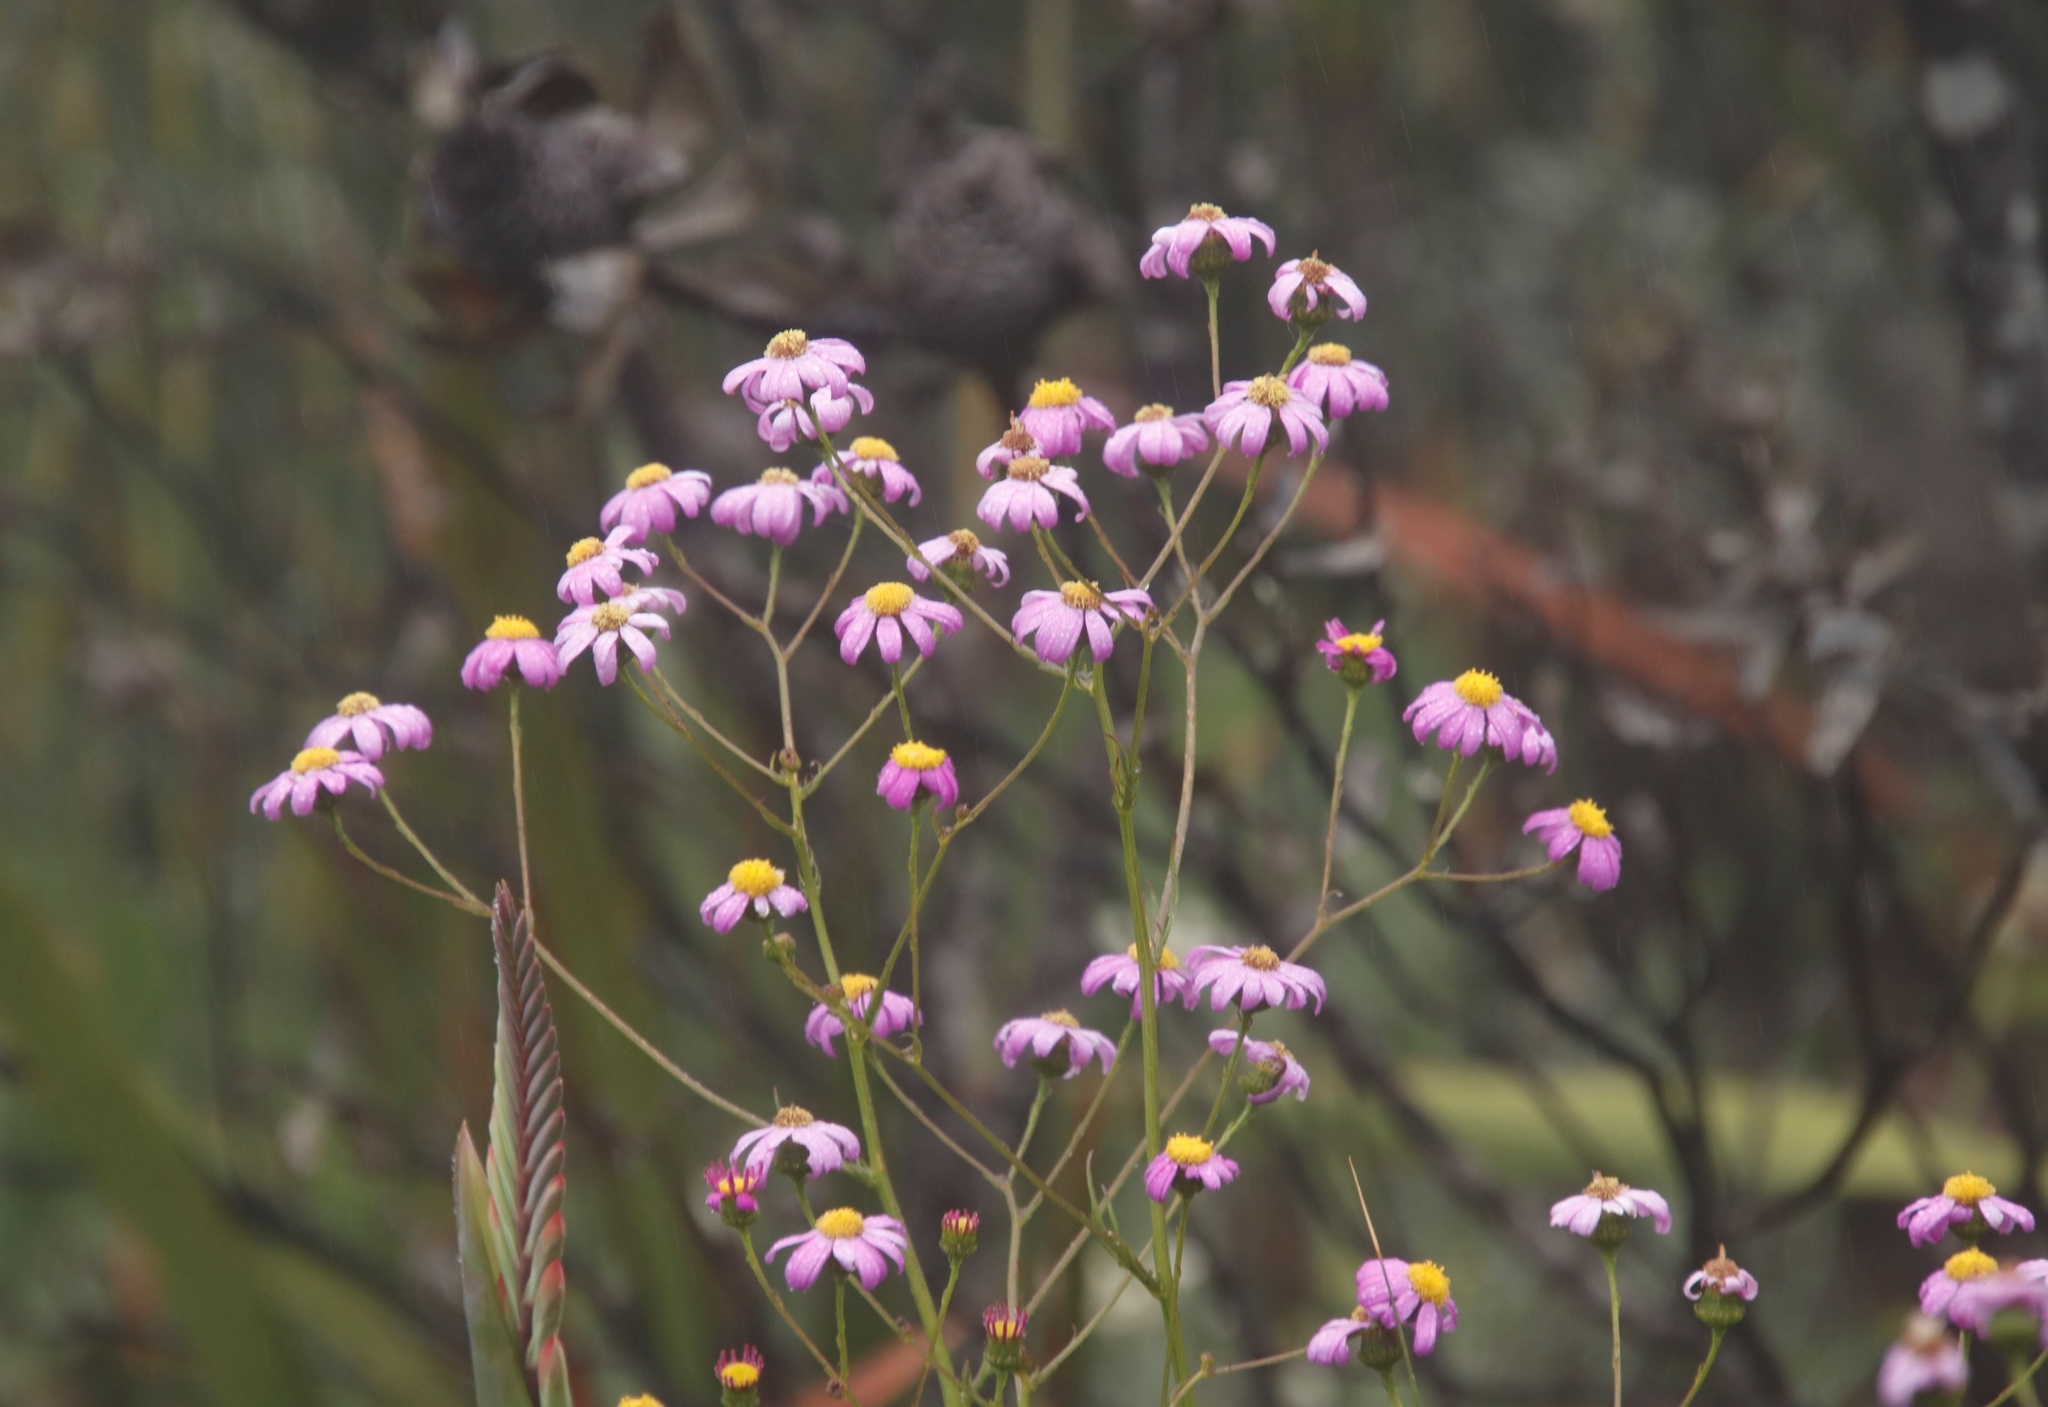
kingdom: Plantae
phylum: Tracheophyta
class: Magnoliopsida
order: Asterales
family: Asteraceae
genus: Senecio
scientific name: Senecio umbellatus
